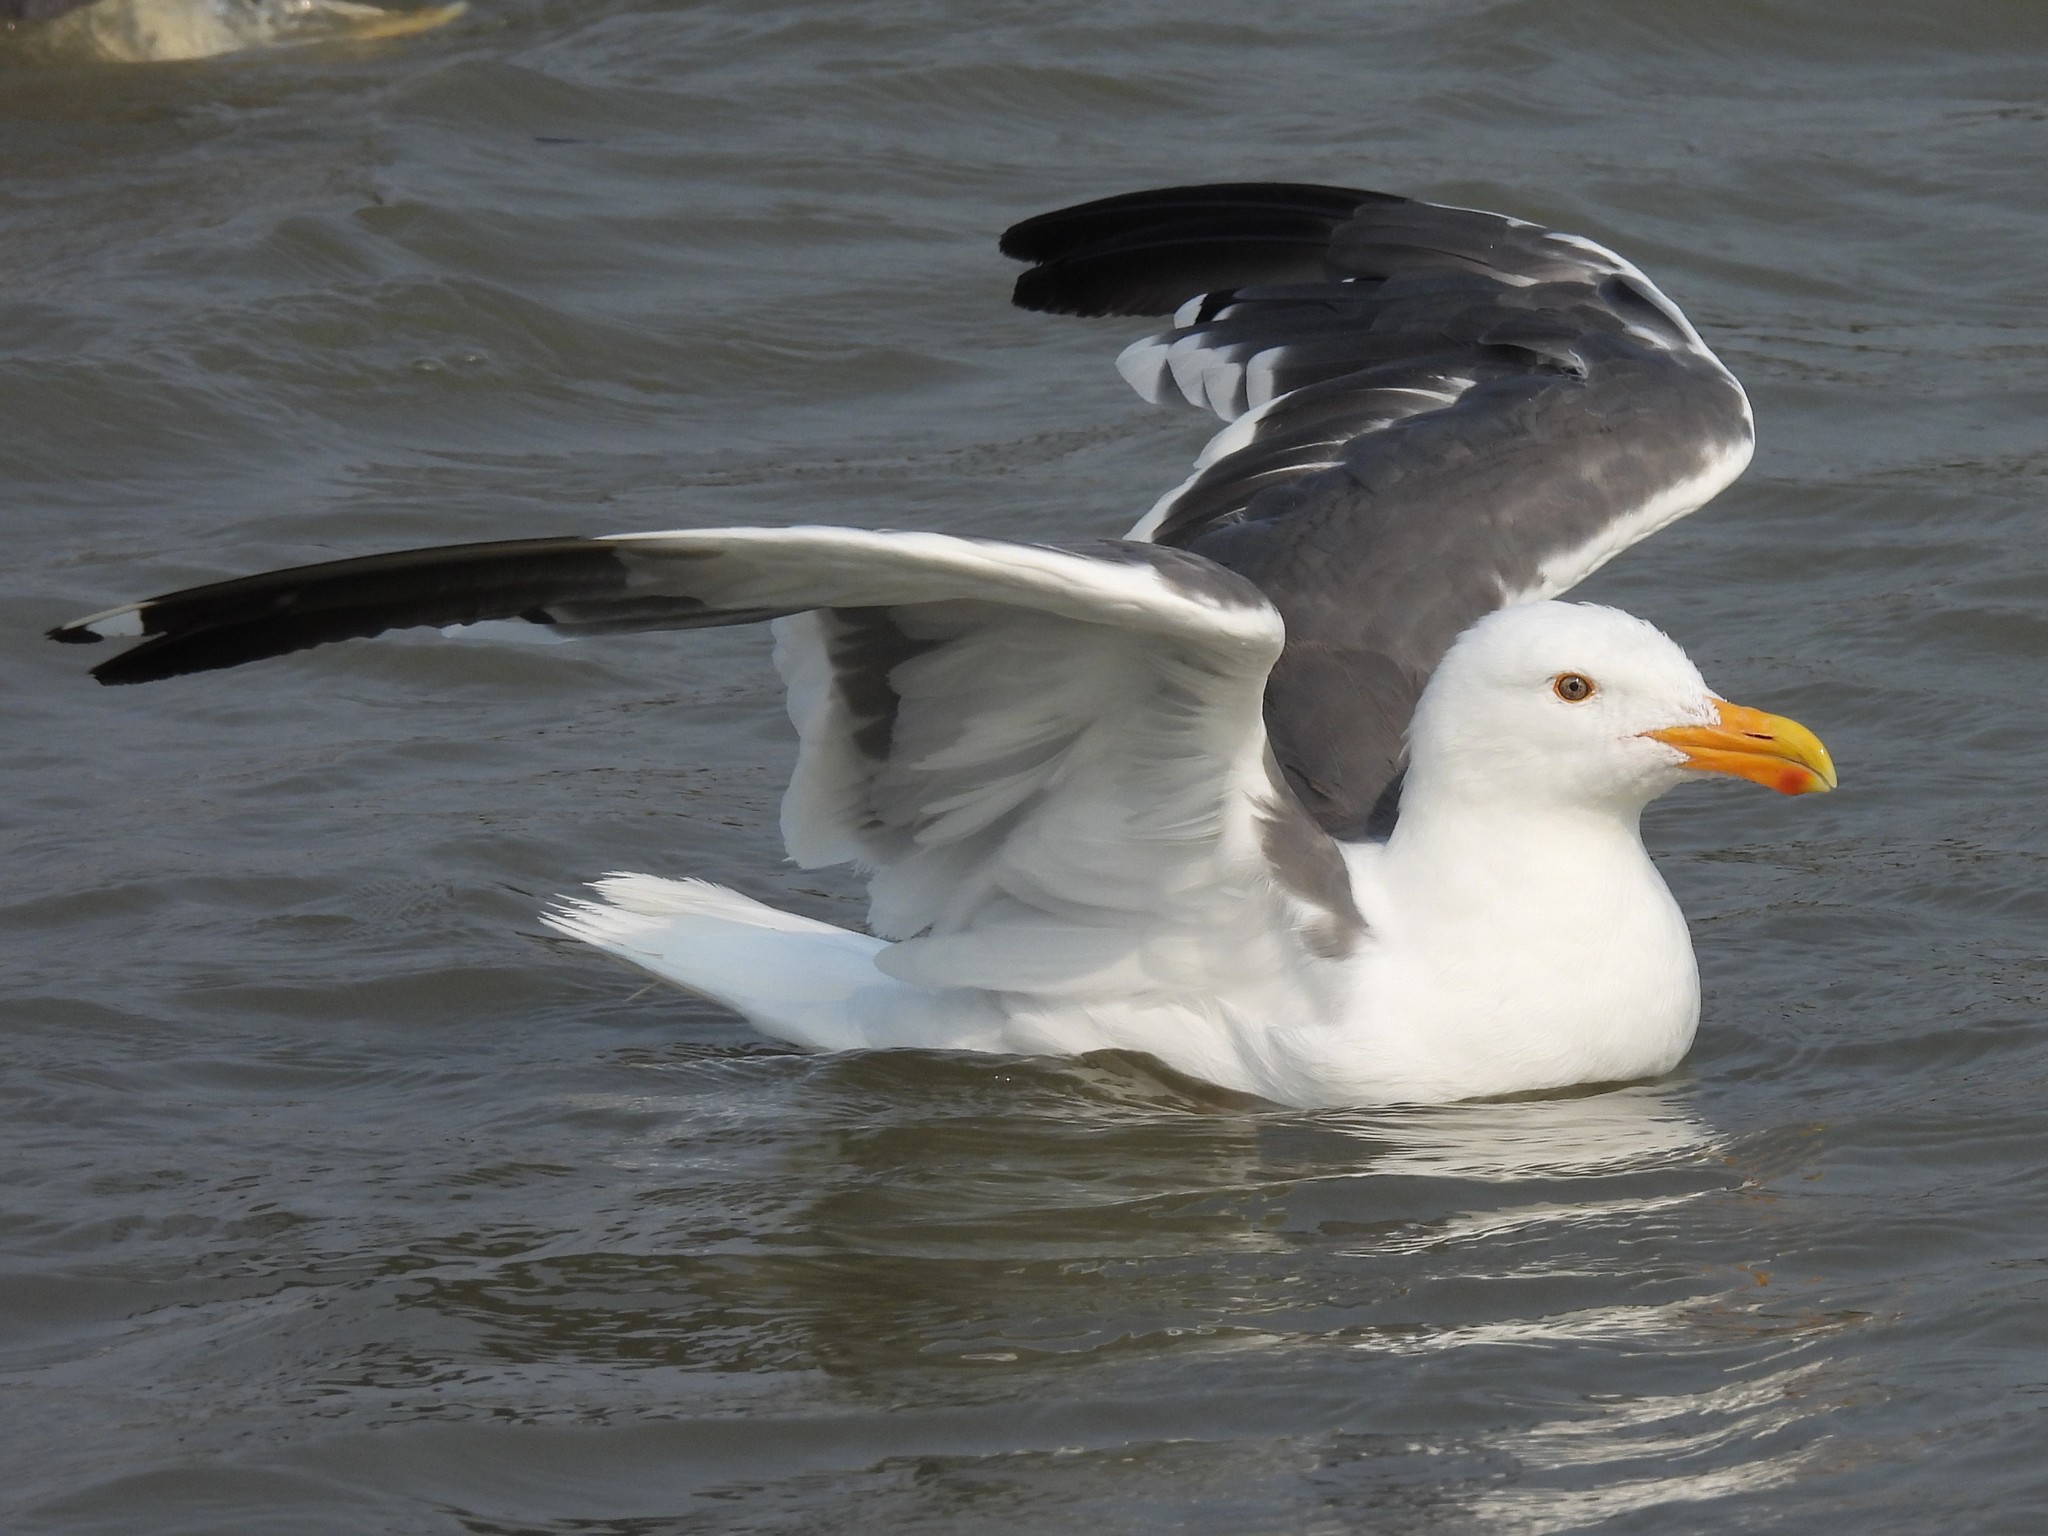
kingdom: Animalia
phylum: Chordata
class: Aves
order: Charadriiformes
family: Laridae
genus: Larus
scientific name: Larus occidentalis
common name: Western gull
